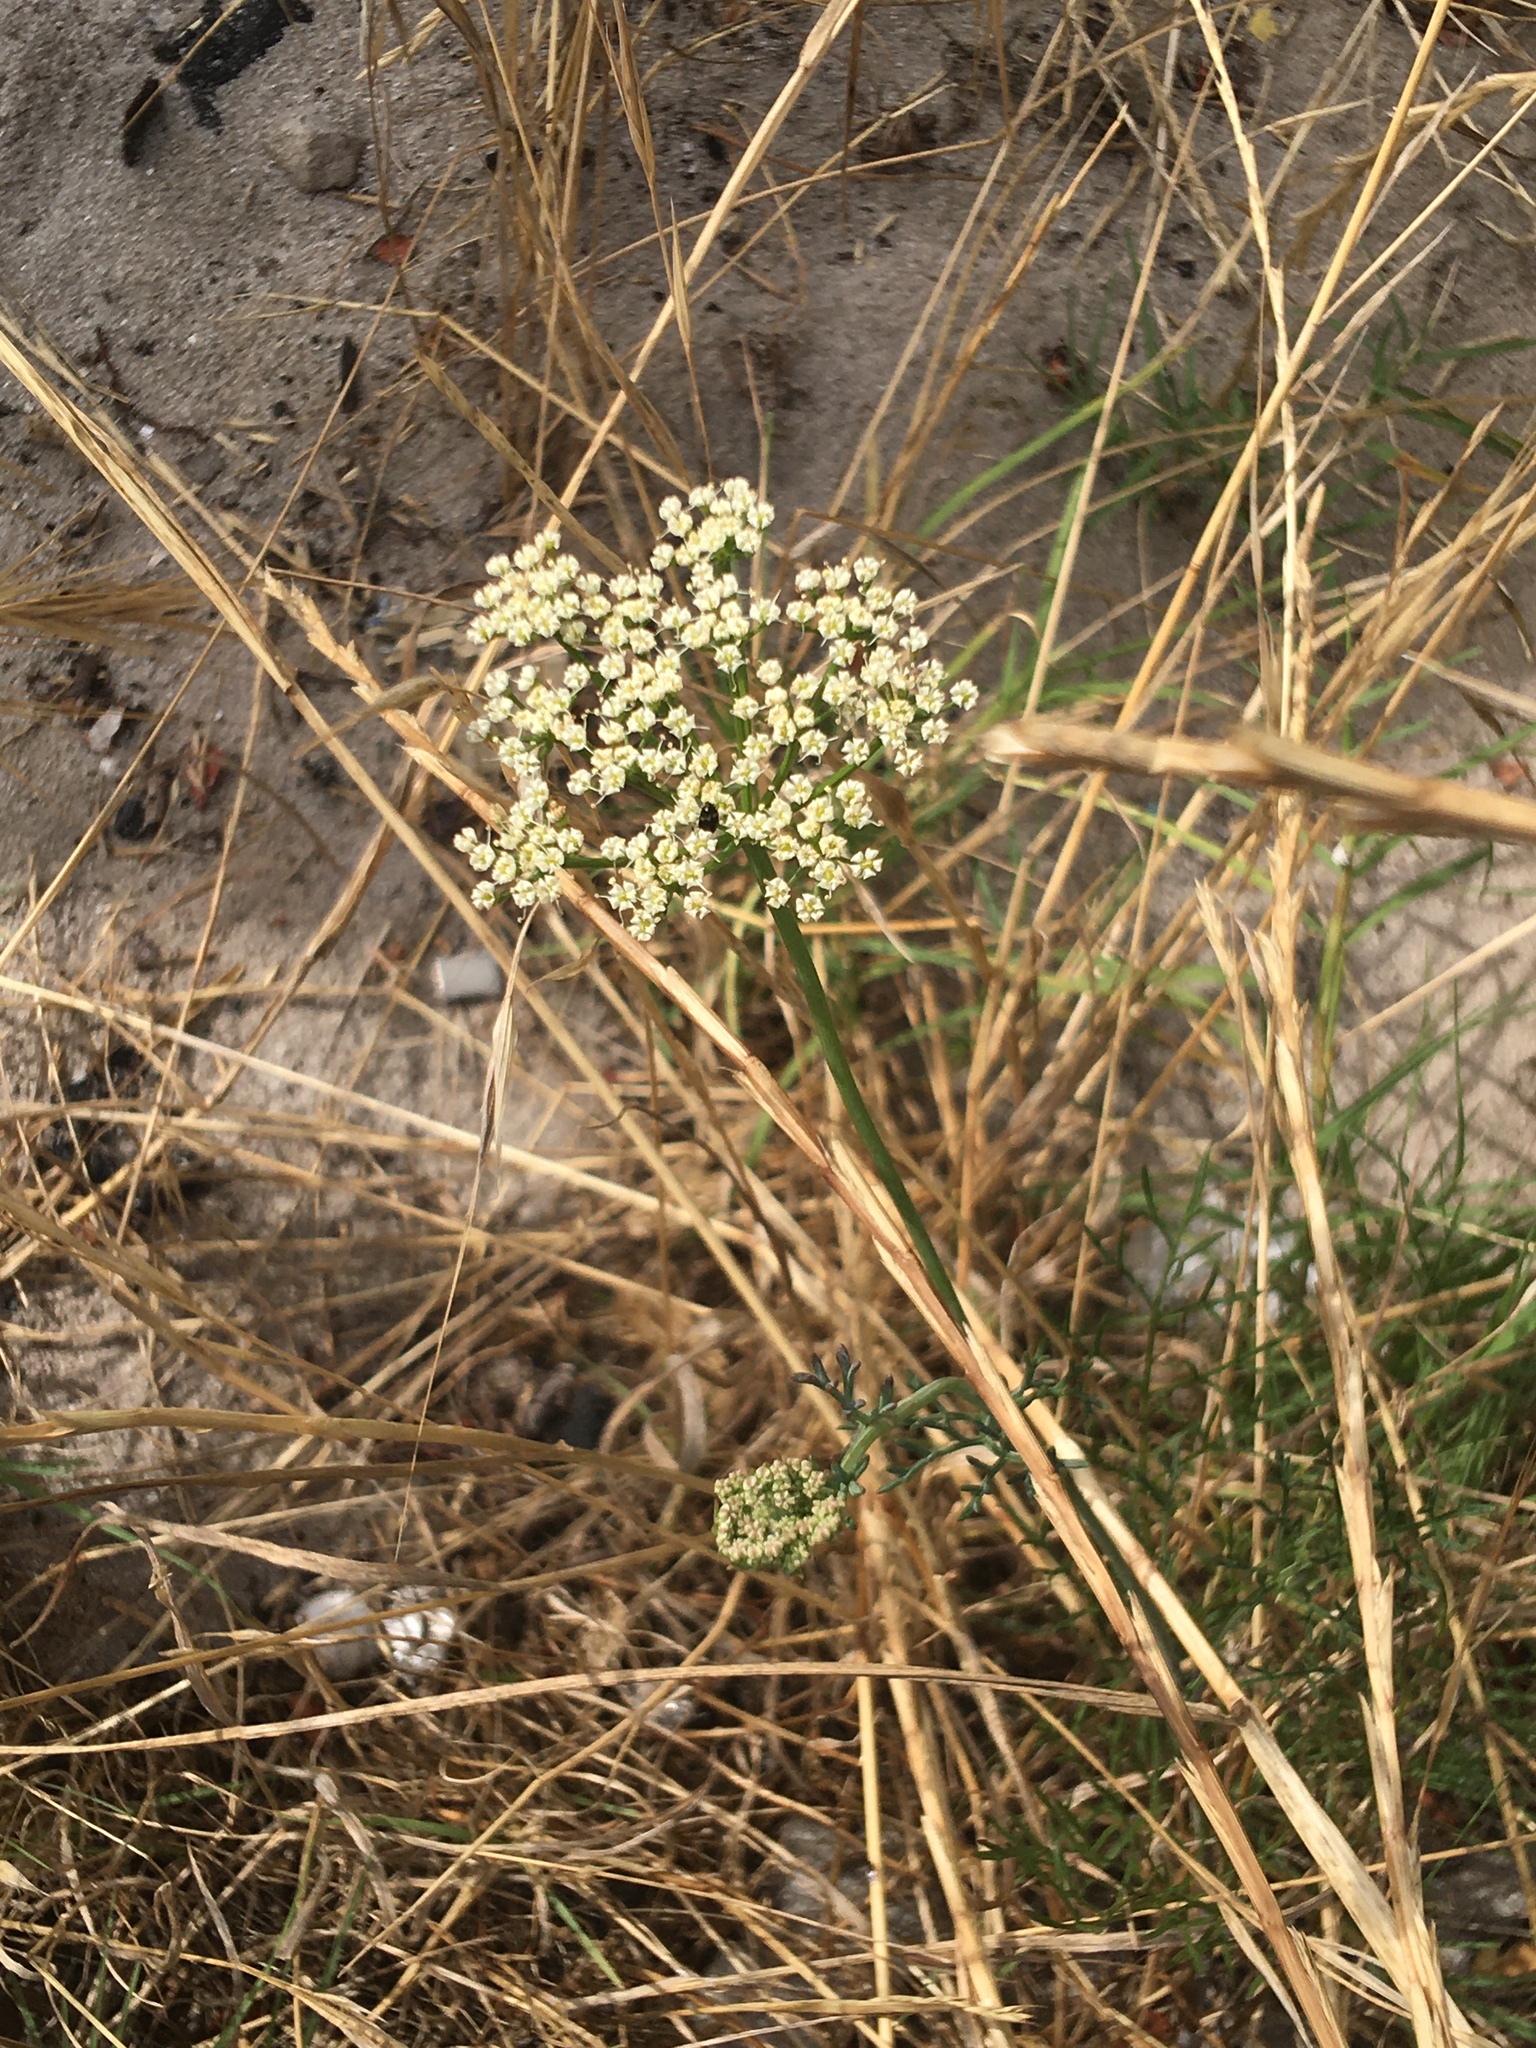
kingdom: Plantae
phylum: Tracheophyta
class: Magnoliopsida
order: Apiales
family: Apiaceae
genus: Dasispermum
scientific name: Dasispermum perennans
